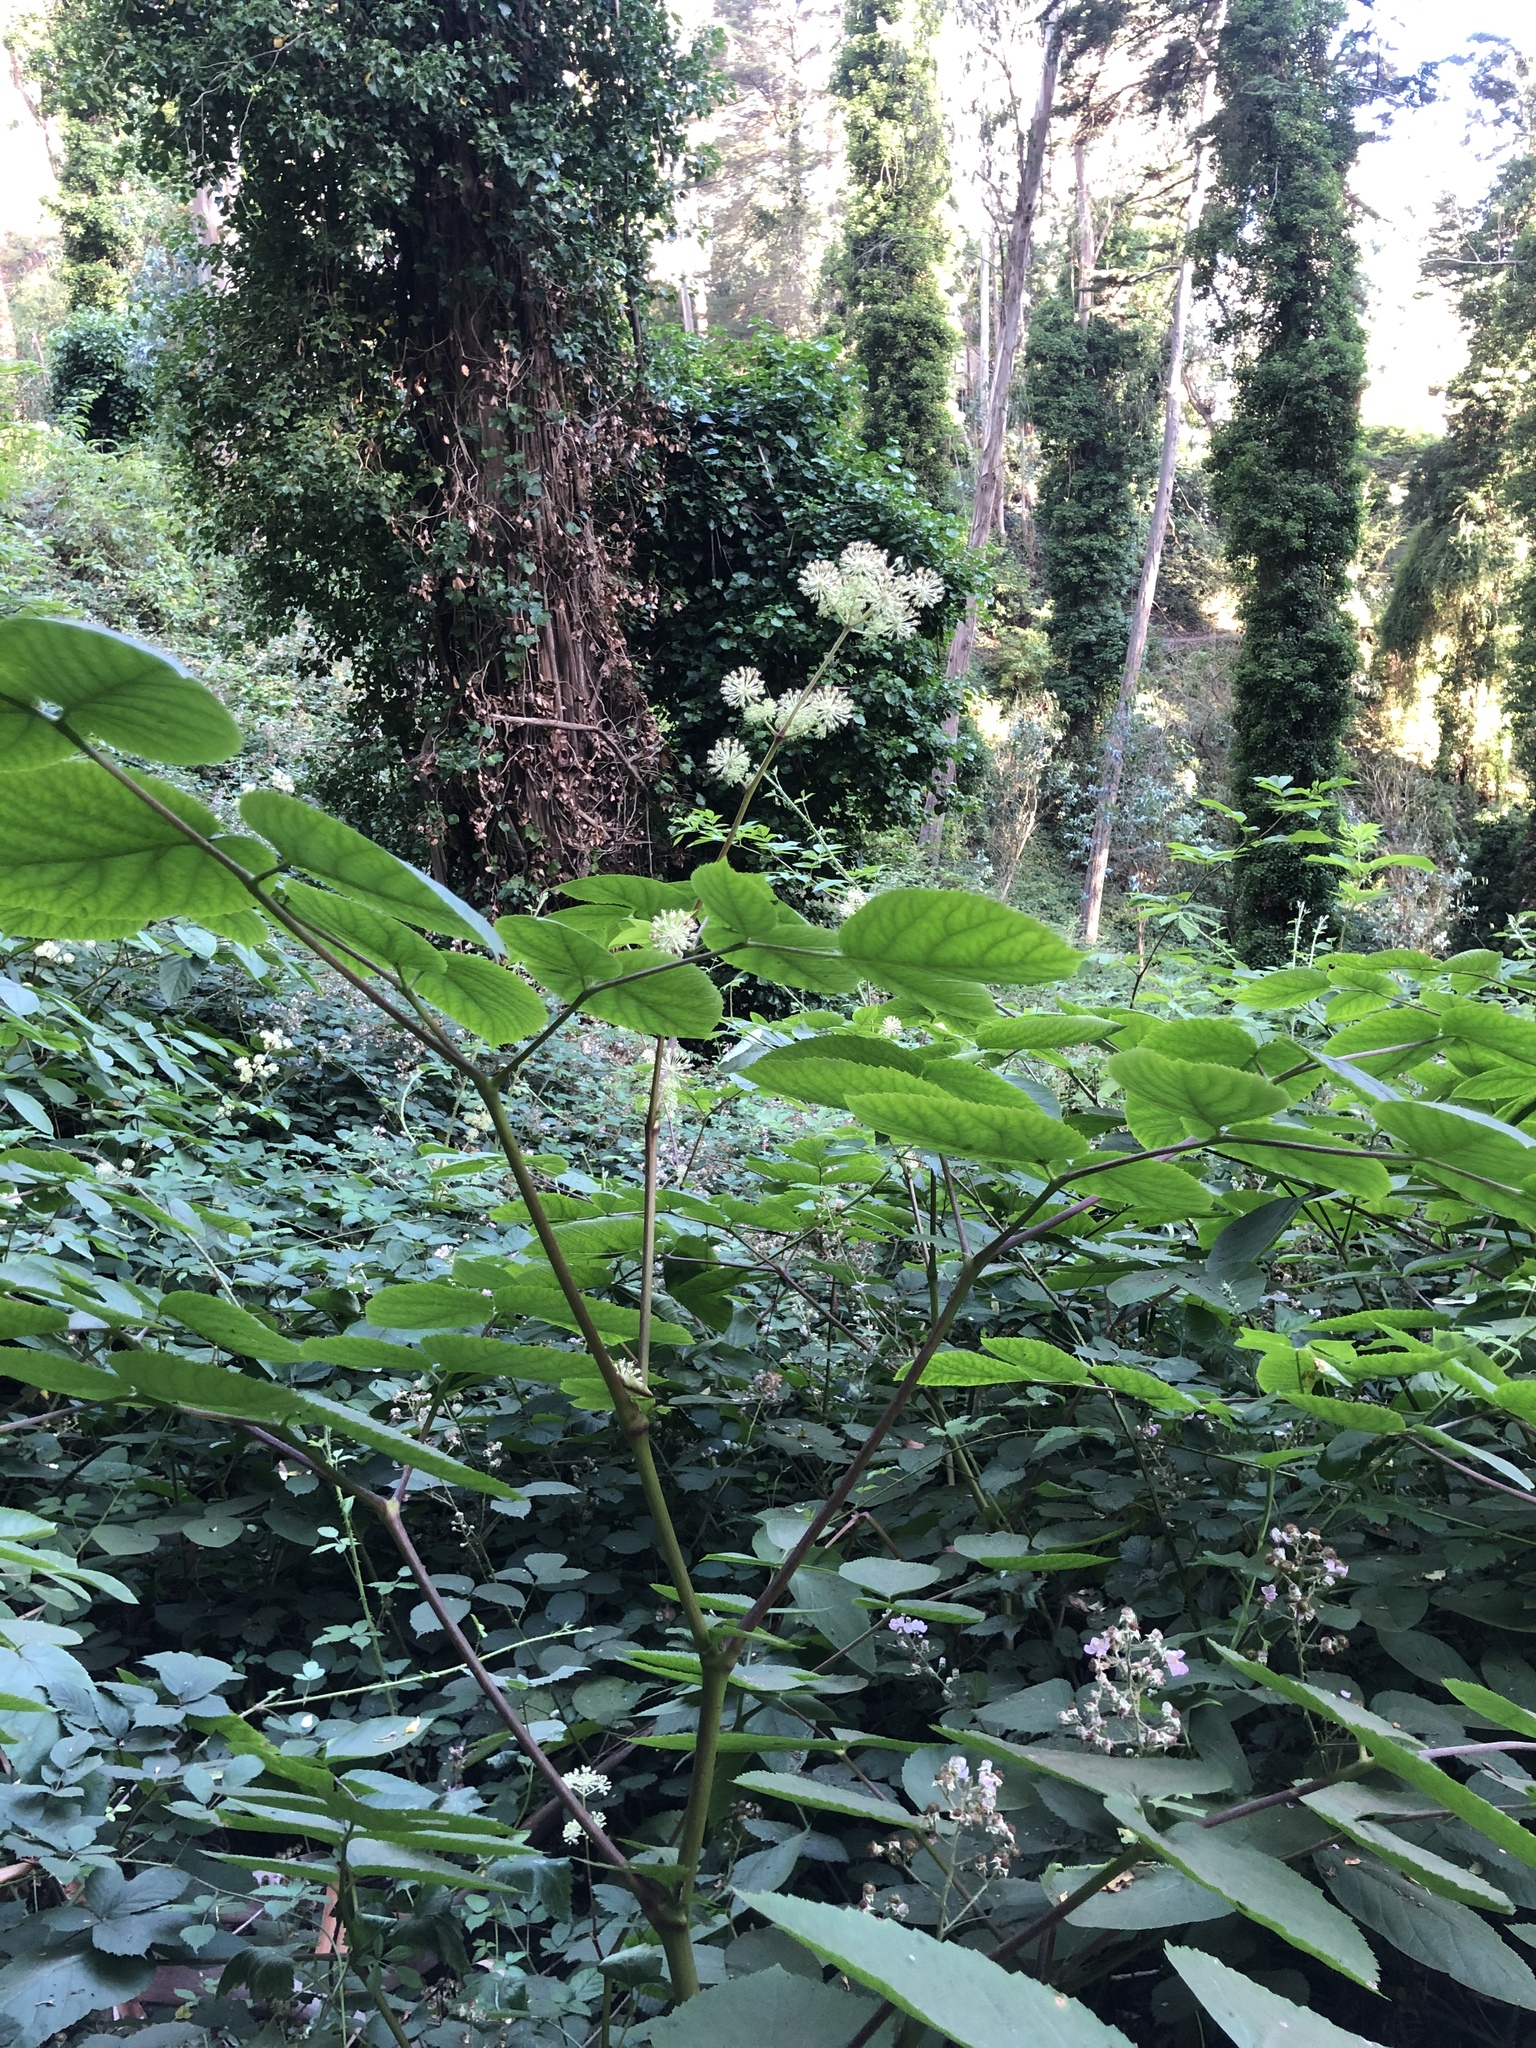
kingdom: Plantae
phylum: Tracheophyta
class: Magnoliopsida
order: Apiales
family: Araliaceae
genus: Aralia
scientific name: Aralia californica
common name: California-ginseng
